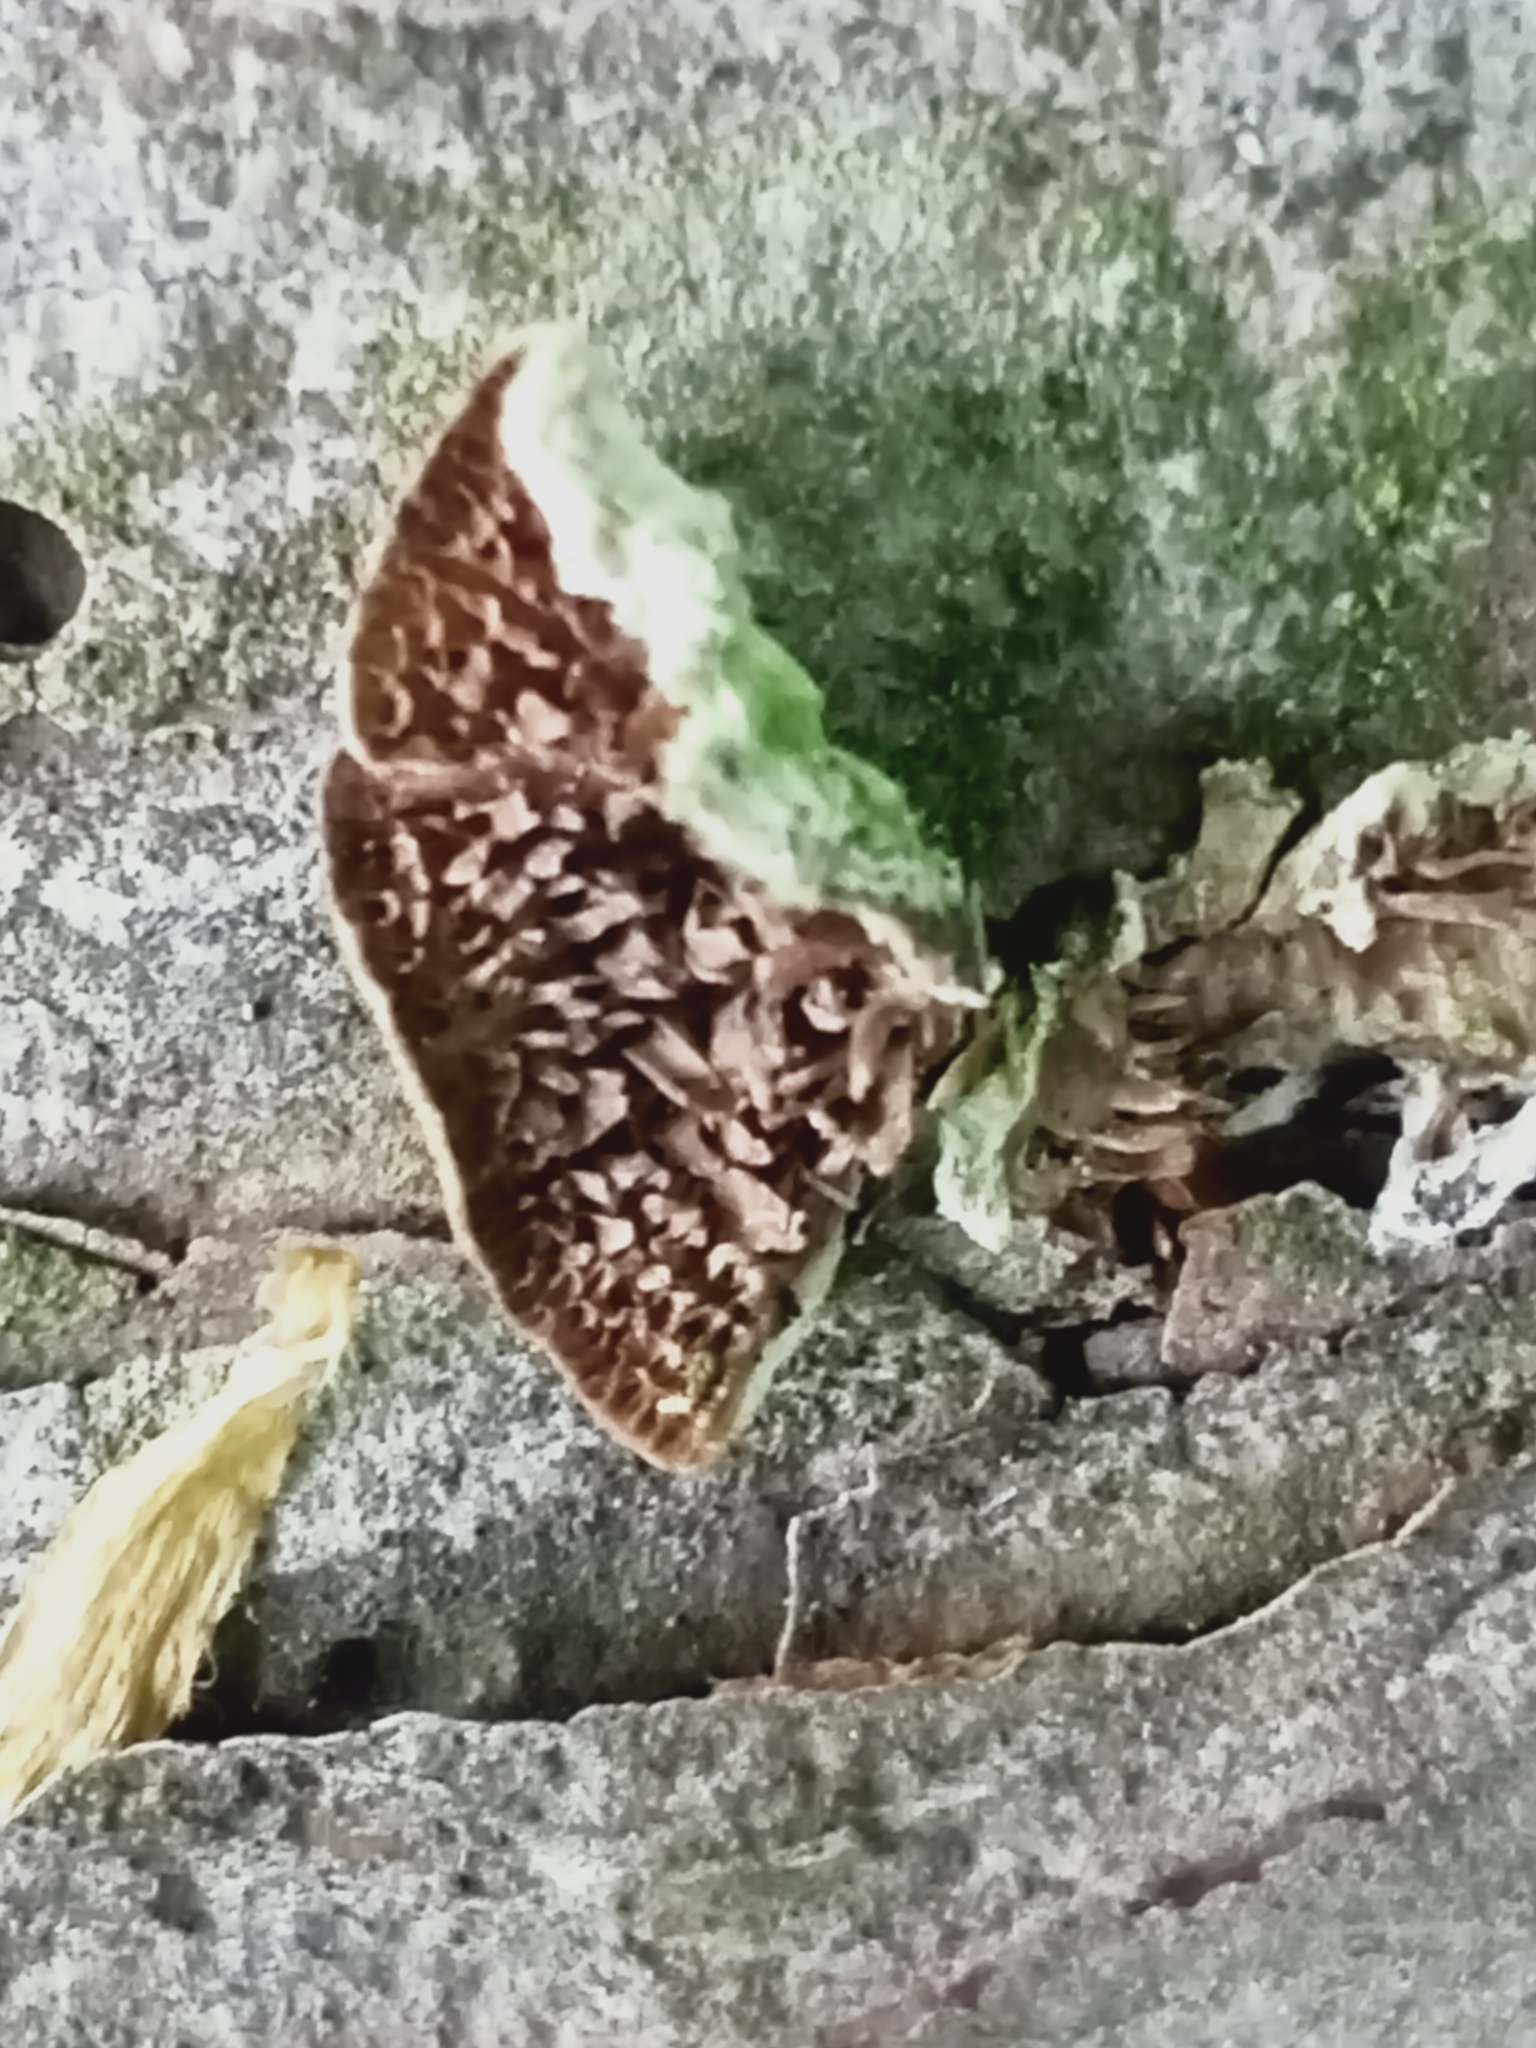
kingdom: Fungi
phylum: Basidiomycota
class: Agaricomycetes
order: Hymenochaetales
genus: Trichaptum
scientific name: Trichaptum fuscoviolaceum
